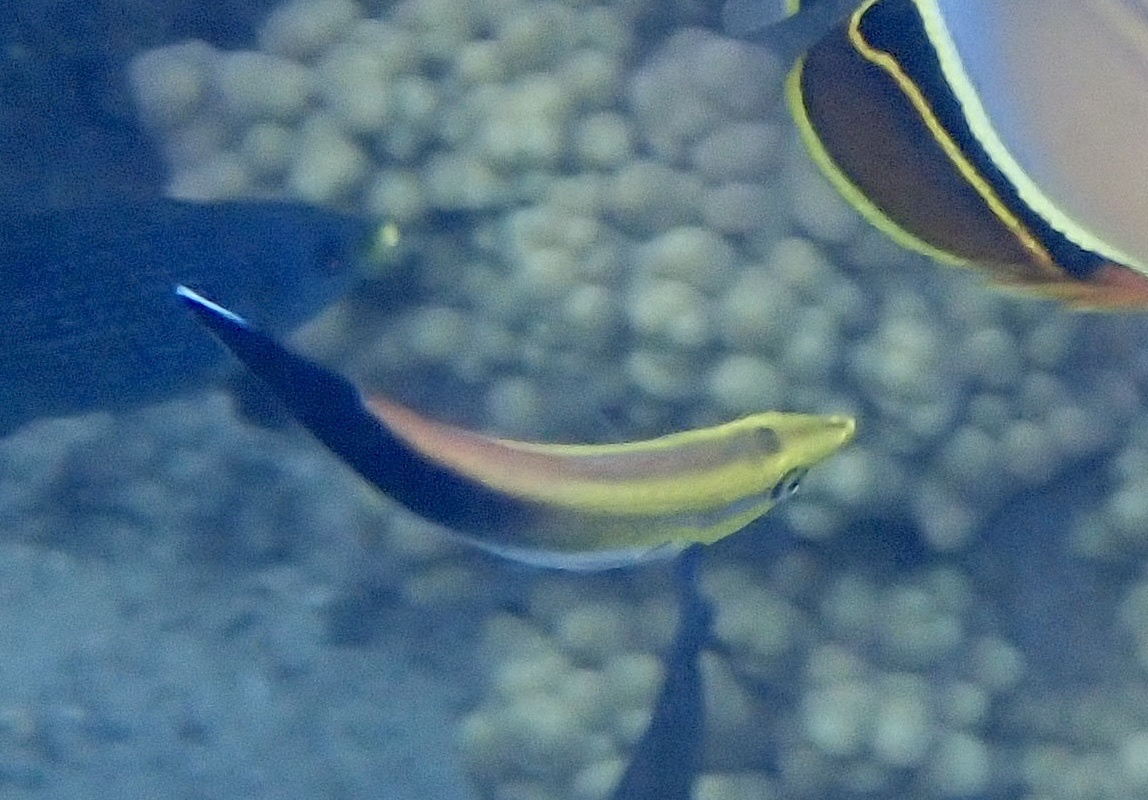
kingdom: Animalia
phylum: Chordata
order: Perciformes
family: Labridae
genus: Labroides
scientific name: Labroides pectoralis
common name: Black-spot cleaner wrasse
